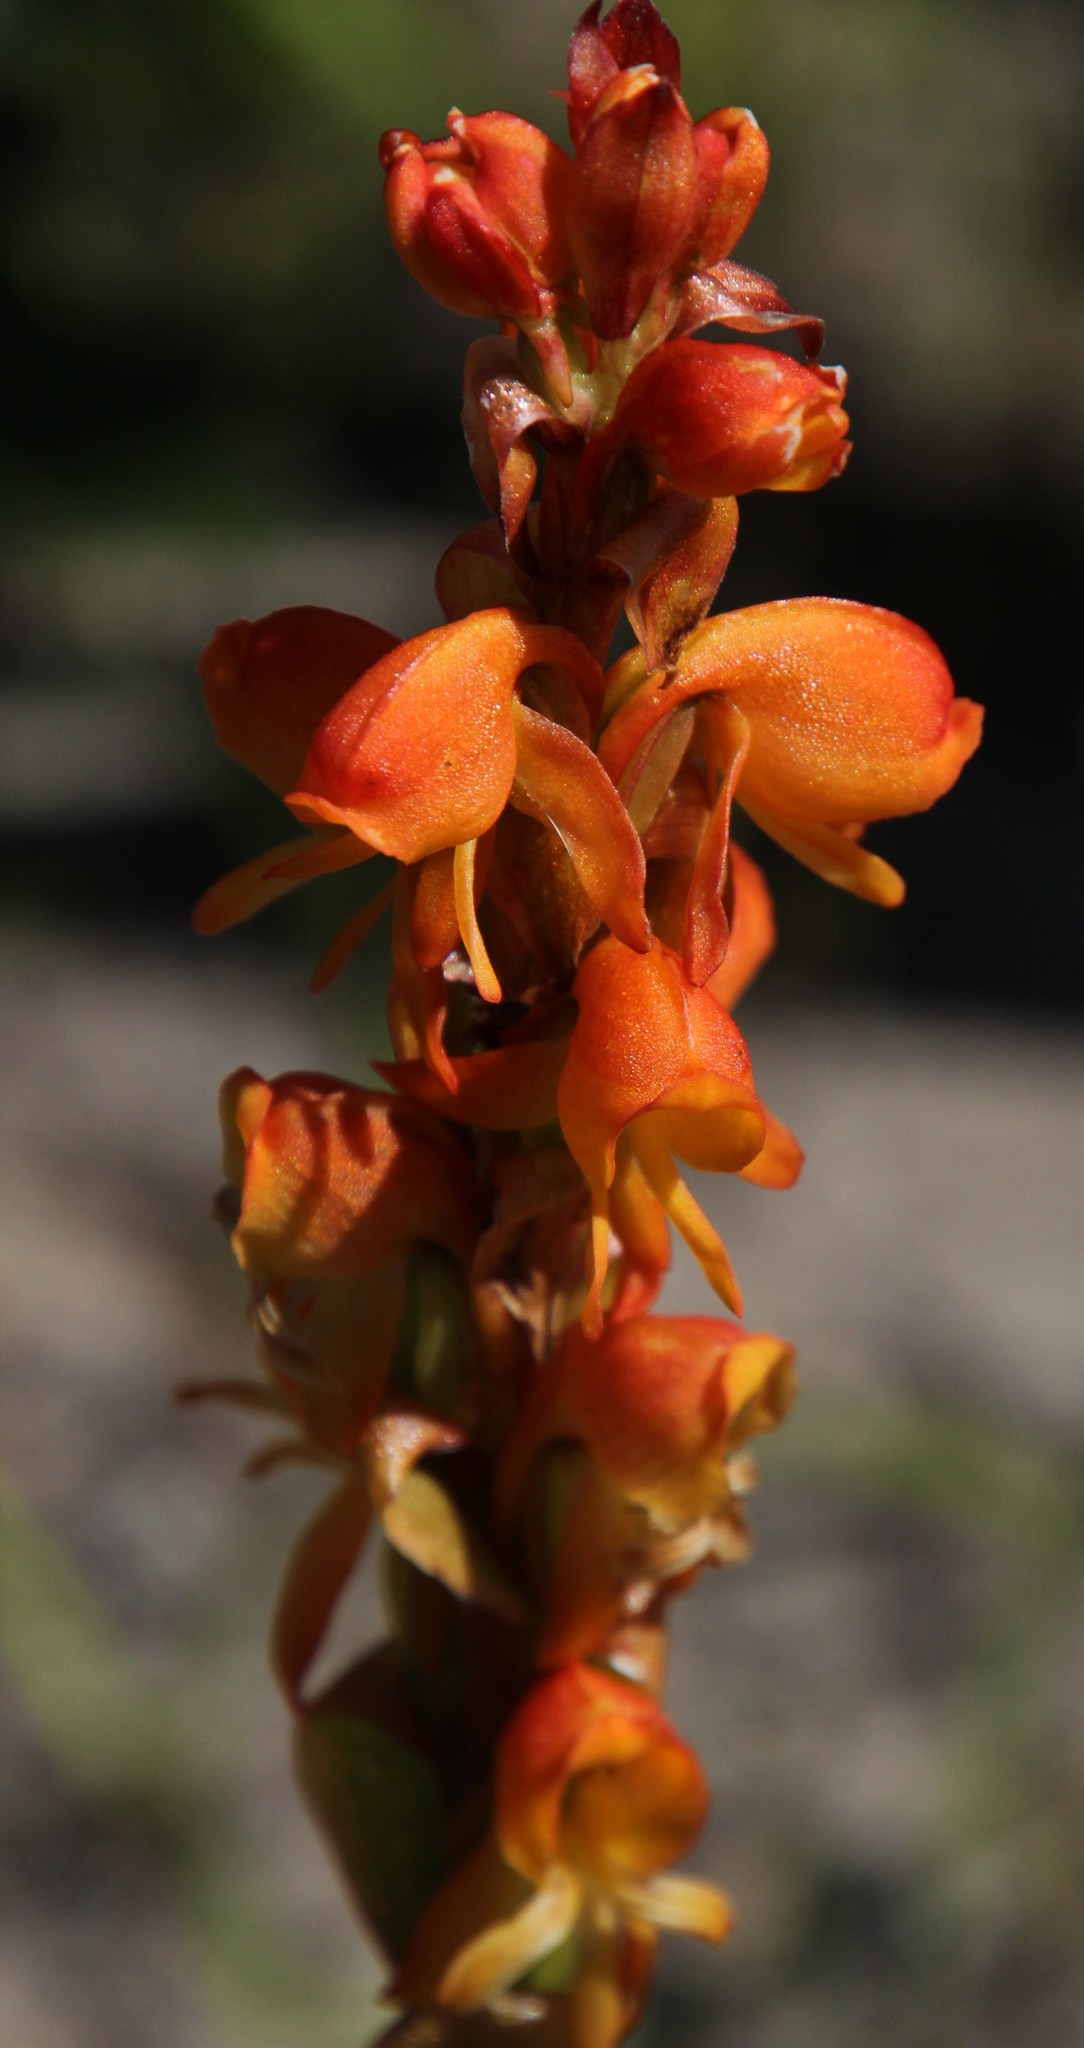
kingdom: Plantae
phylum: Tracheophyta
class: Liliopsida
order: Asparagales
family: Orchidaceae
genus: Satyrium
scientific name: Satyrium coriifolium
